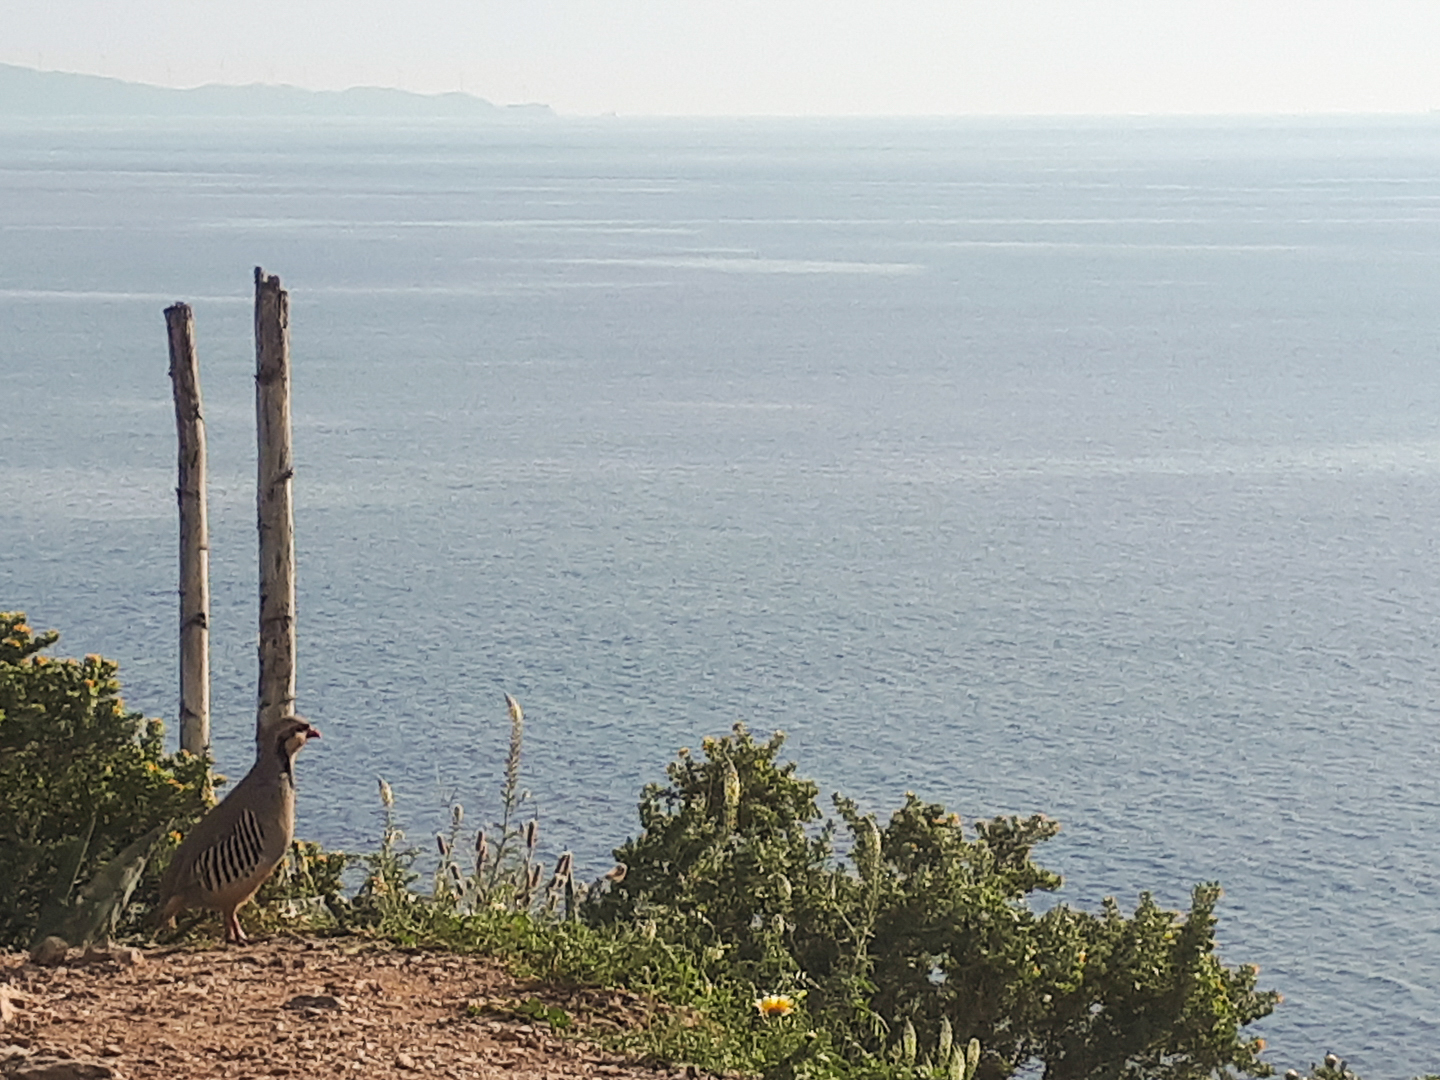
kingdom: Animalia
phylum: Chordata
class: Aves
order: Galliformes
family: Phasianidae
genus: Alectoris
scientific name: Alectoris chukar
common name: Chukar
